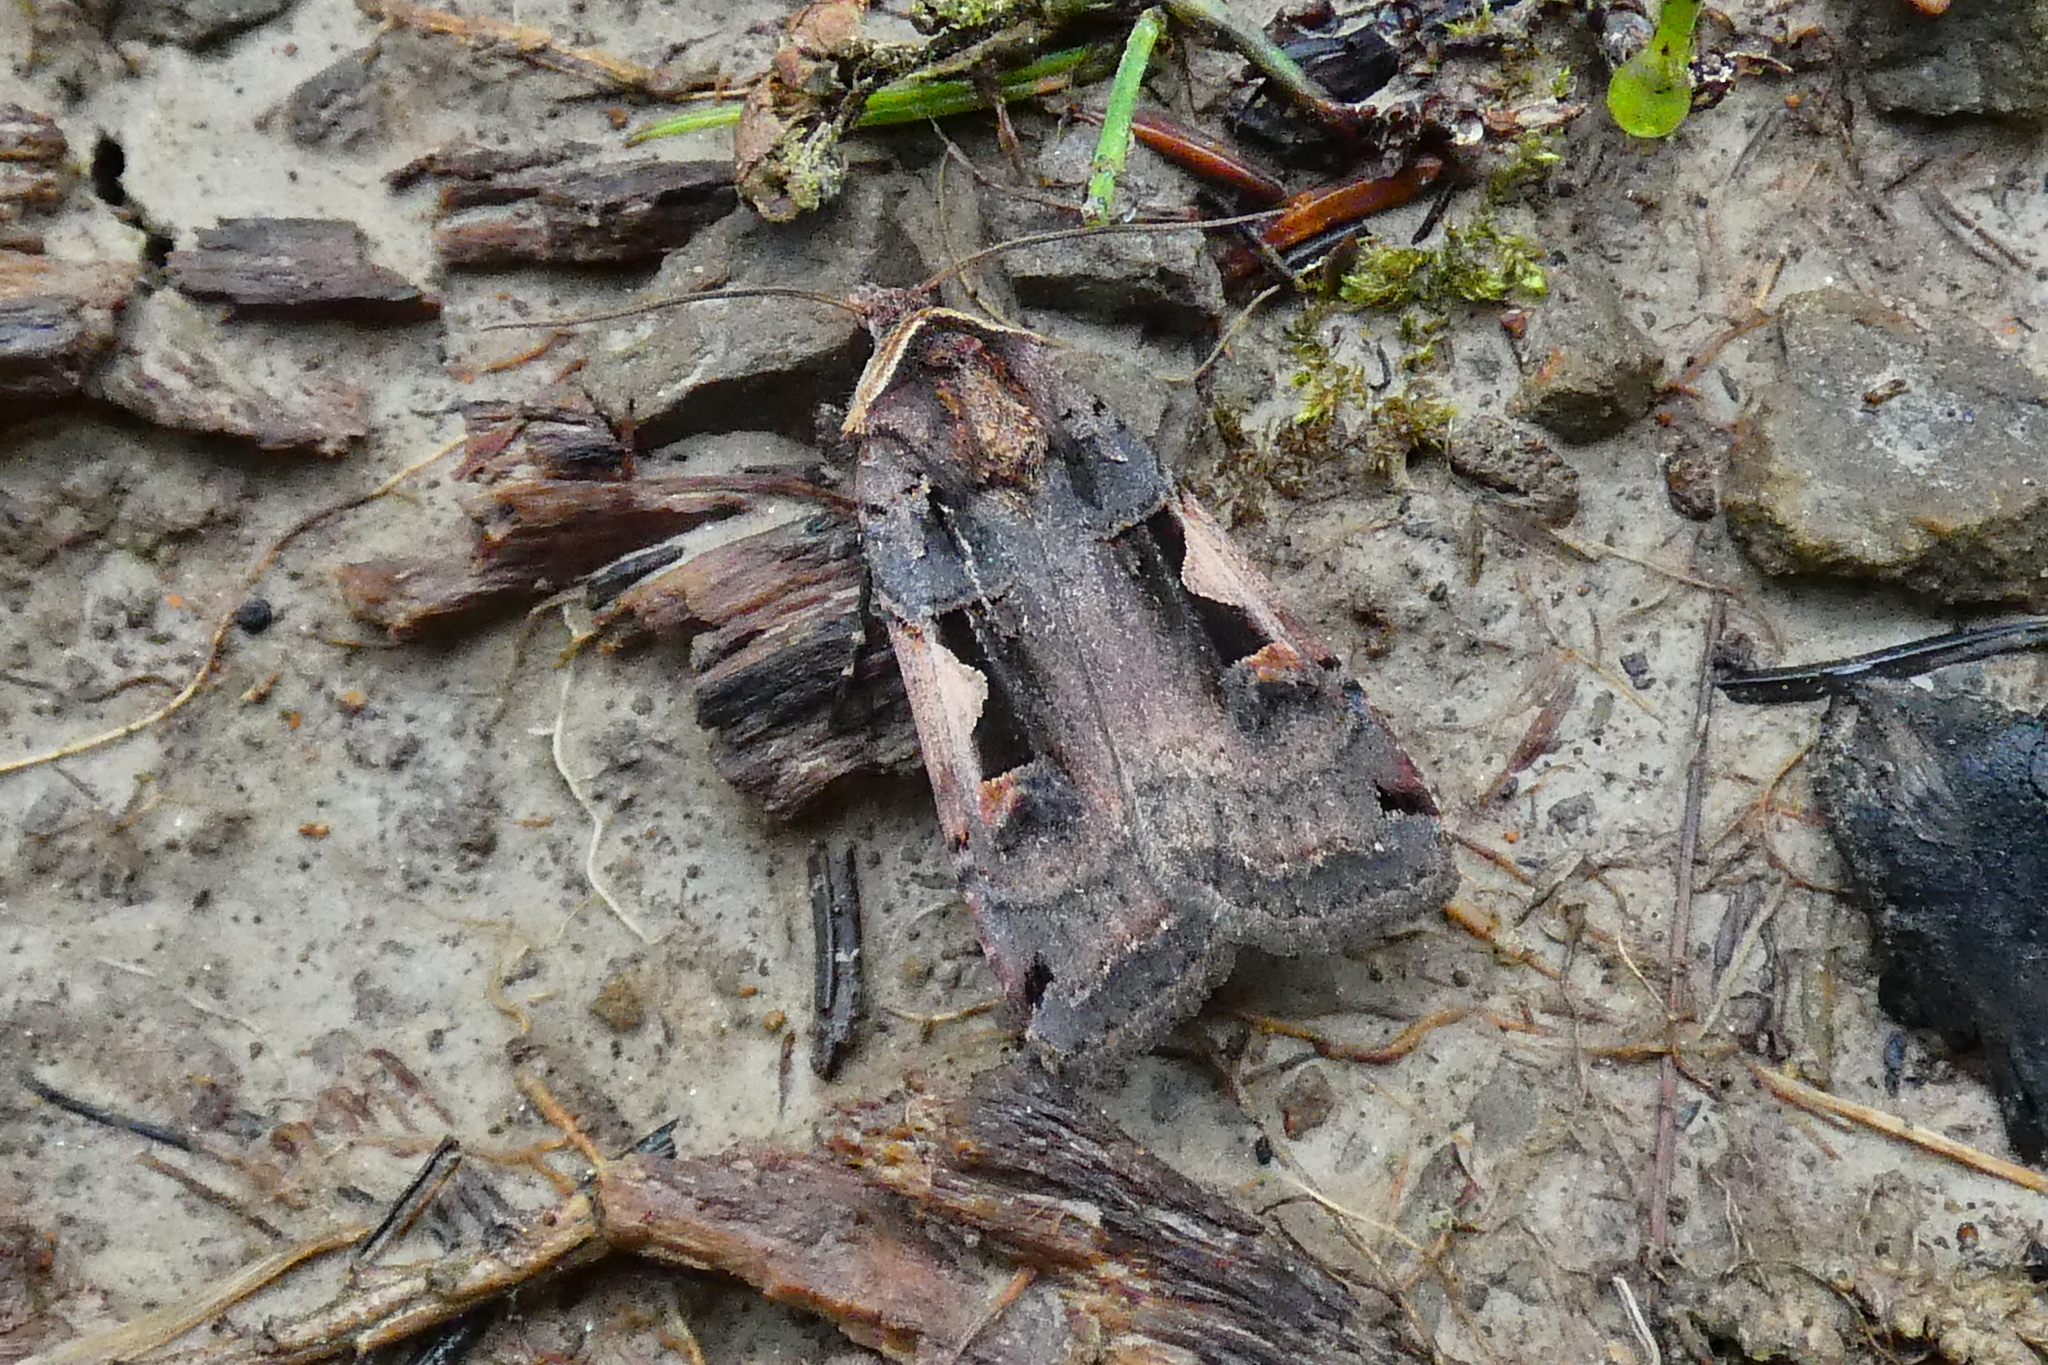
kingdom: Animalia
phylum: Arthropoda
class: Insecta
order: Lepidoptera
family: Noctuidae
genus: Xestia
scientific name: Xestia c-nigrum
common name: Setaceous hebrew character
